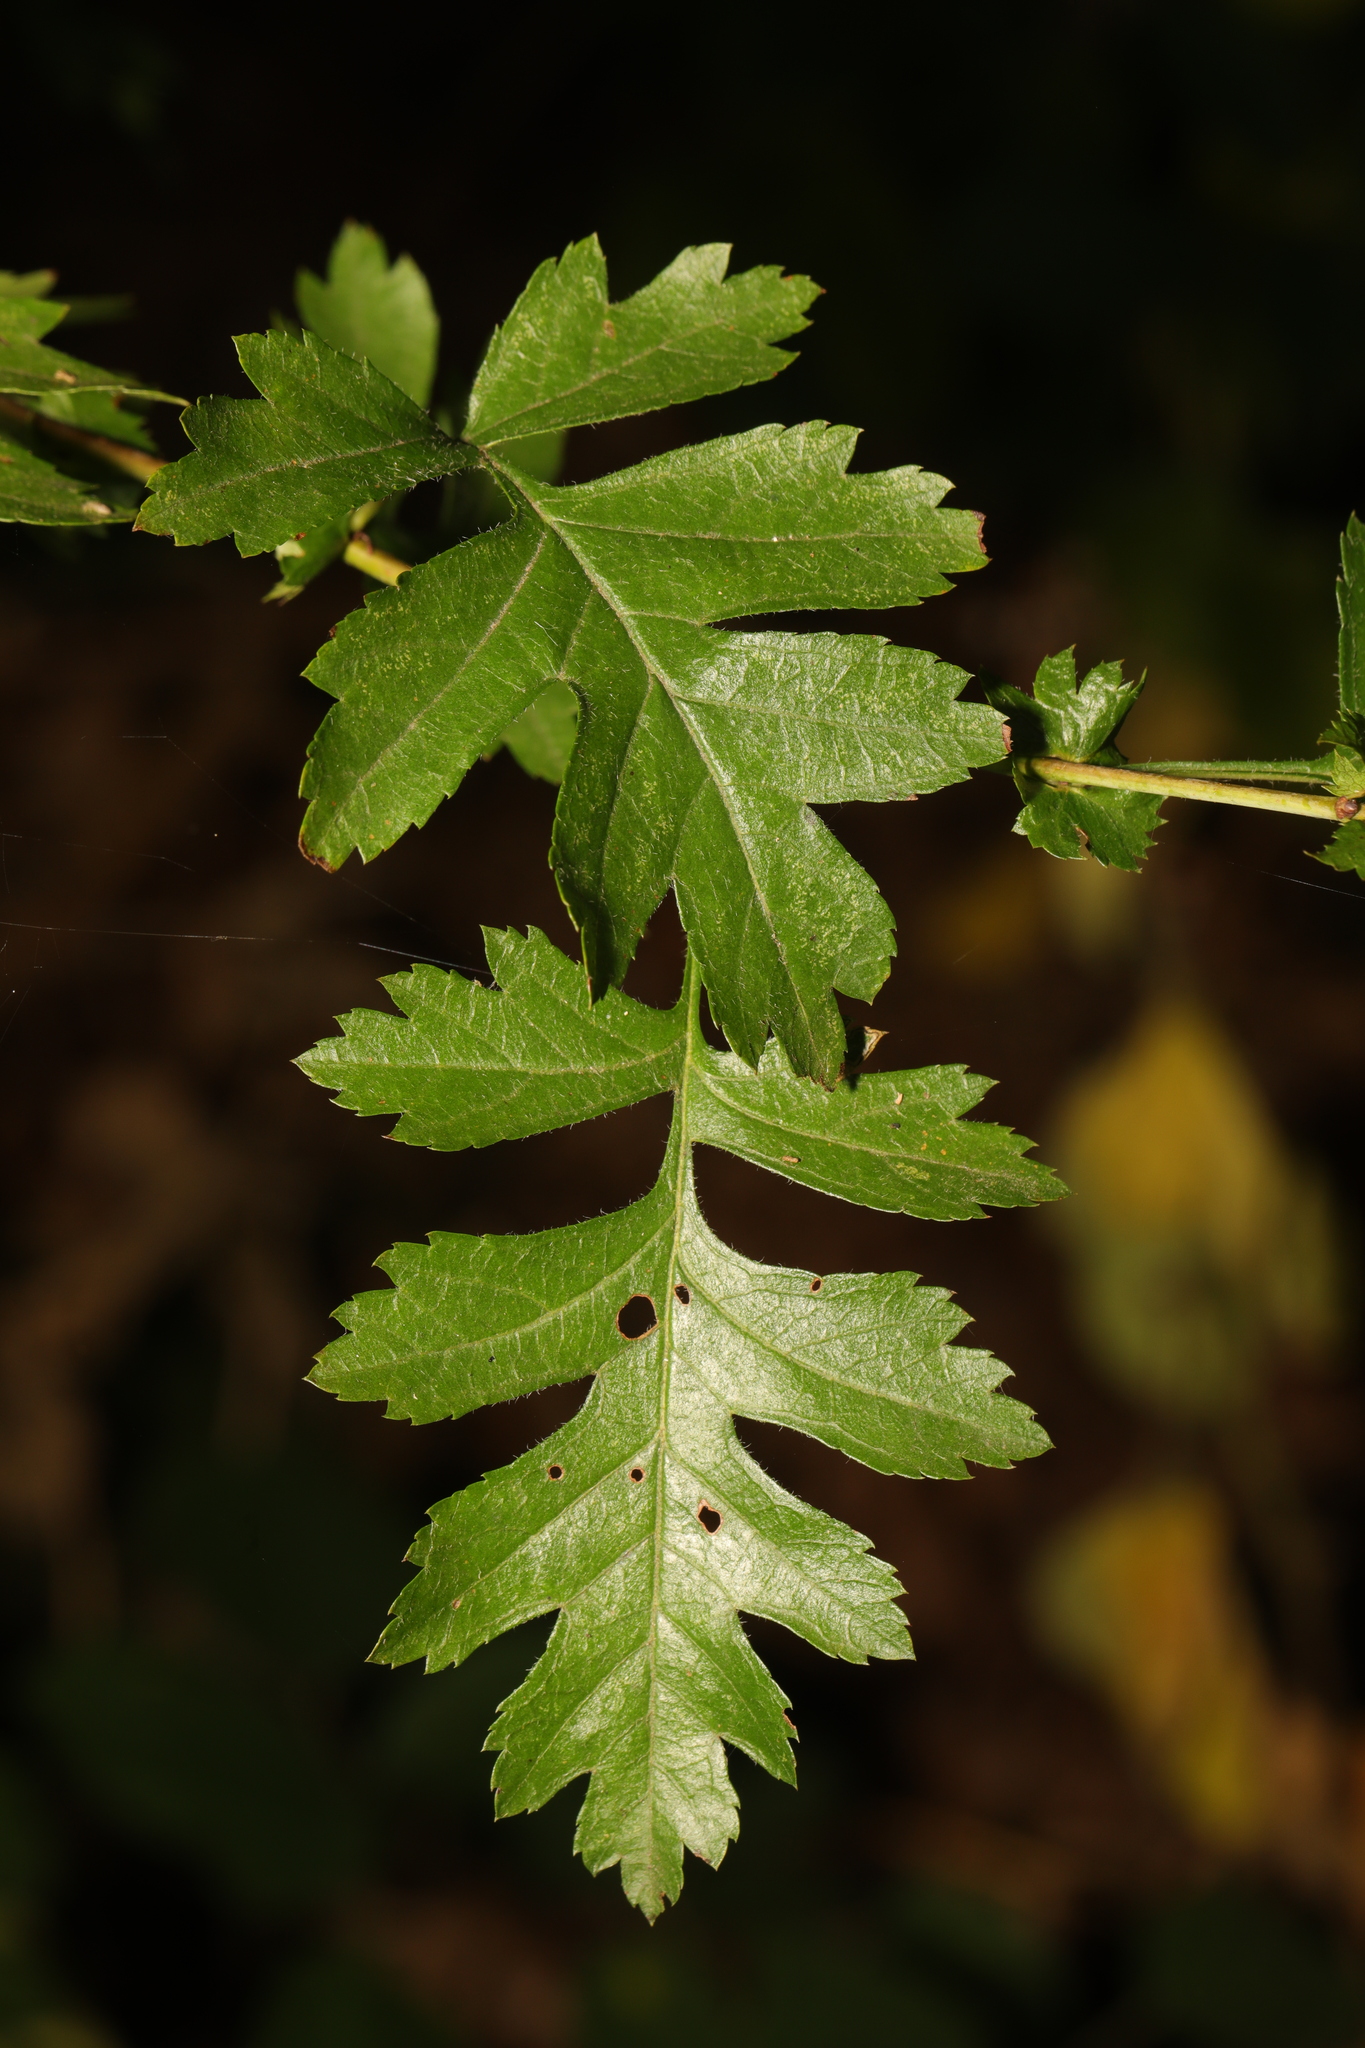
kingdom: Plantae
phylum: Tracheophyta
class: Magnoliopsida
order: Rosales
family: Rosaceae
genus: Crataegus
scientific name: Crataegus monogyna
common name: Hawthorn
